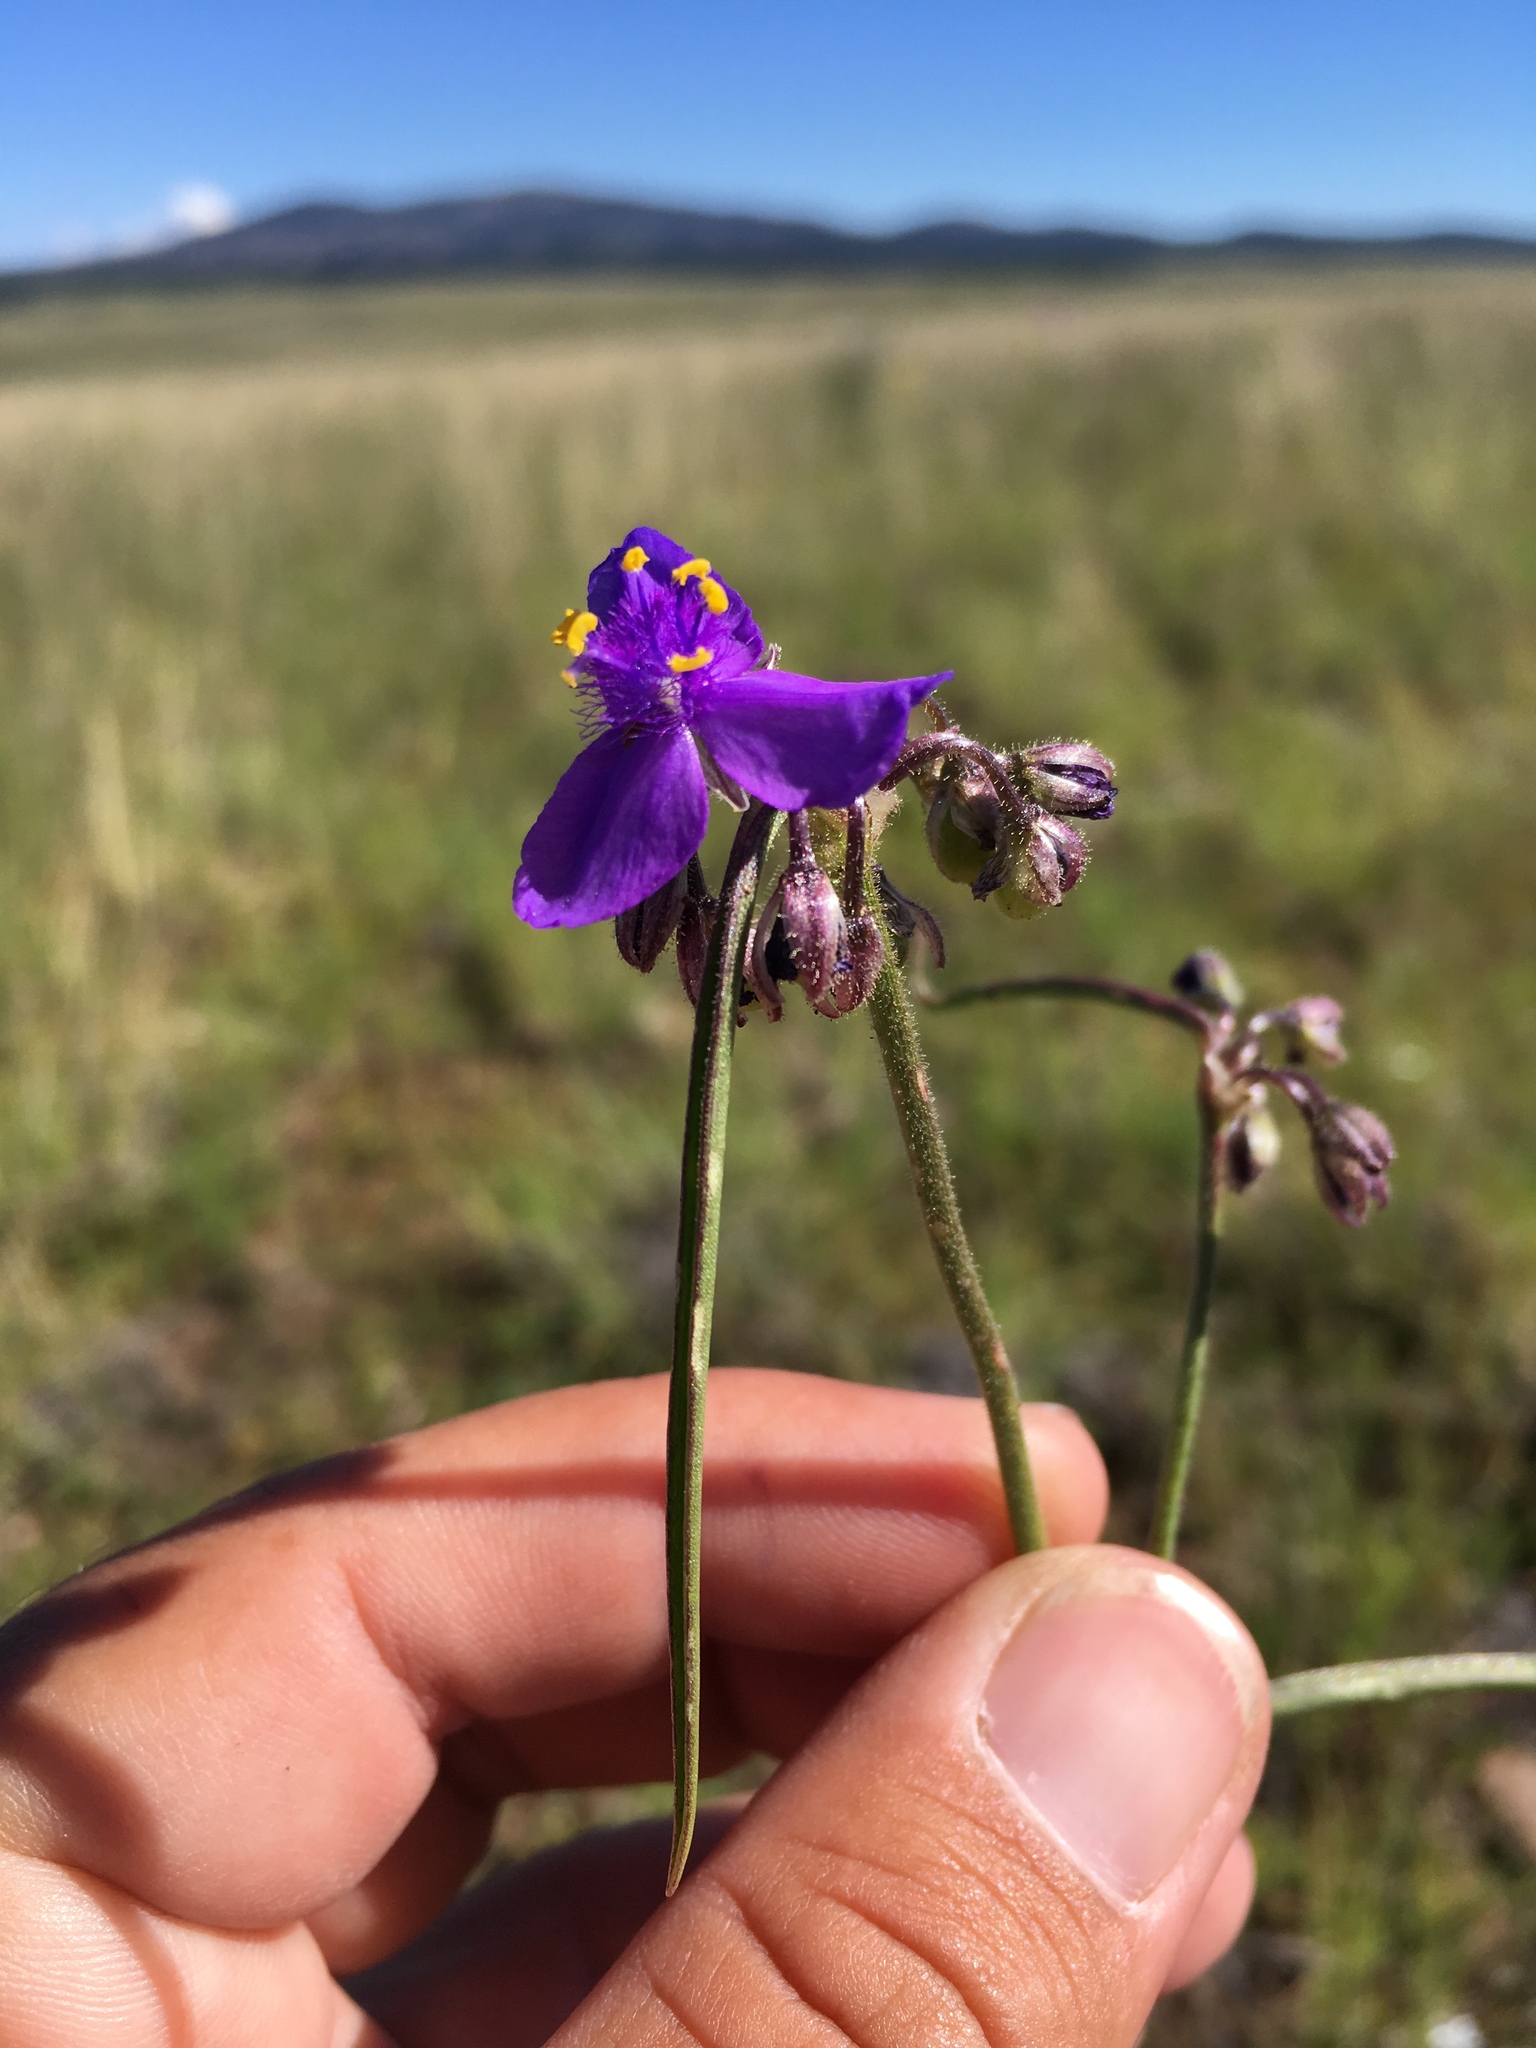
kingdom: Plantae
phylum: Tracheophyta
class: Liliopsida
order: Commelinales
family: Commelinaceae
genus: Tradescantia
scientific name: Tradescantia pinetorum
